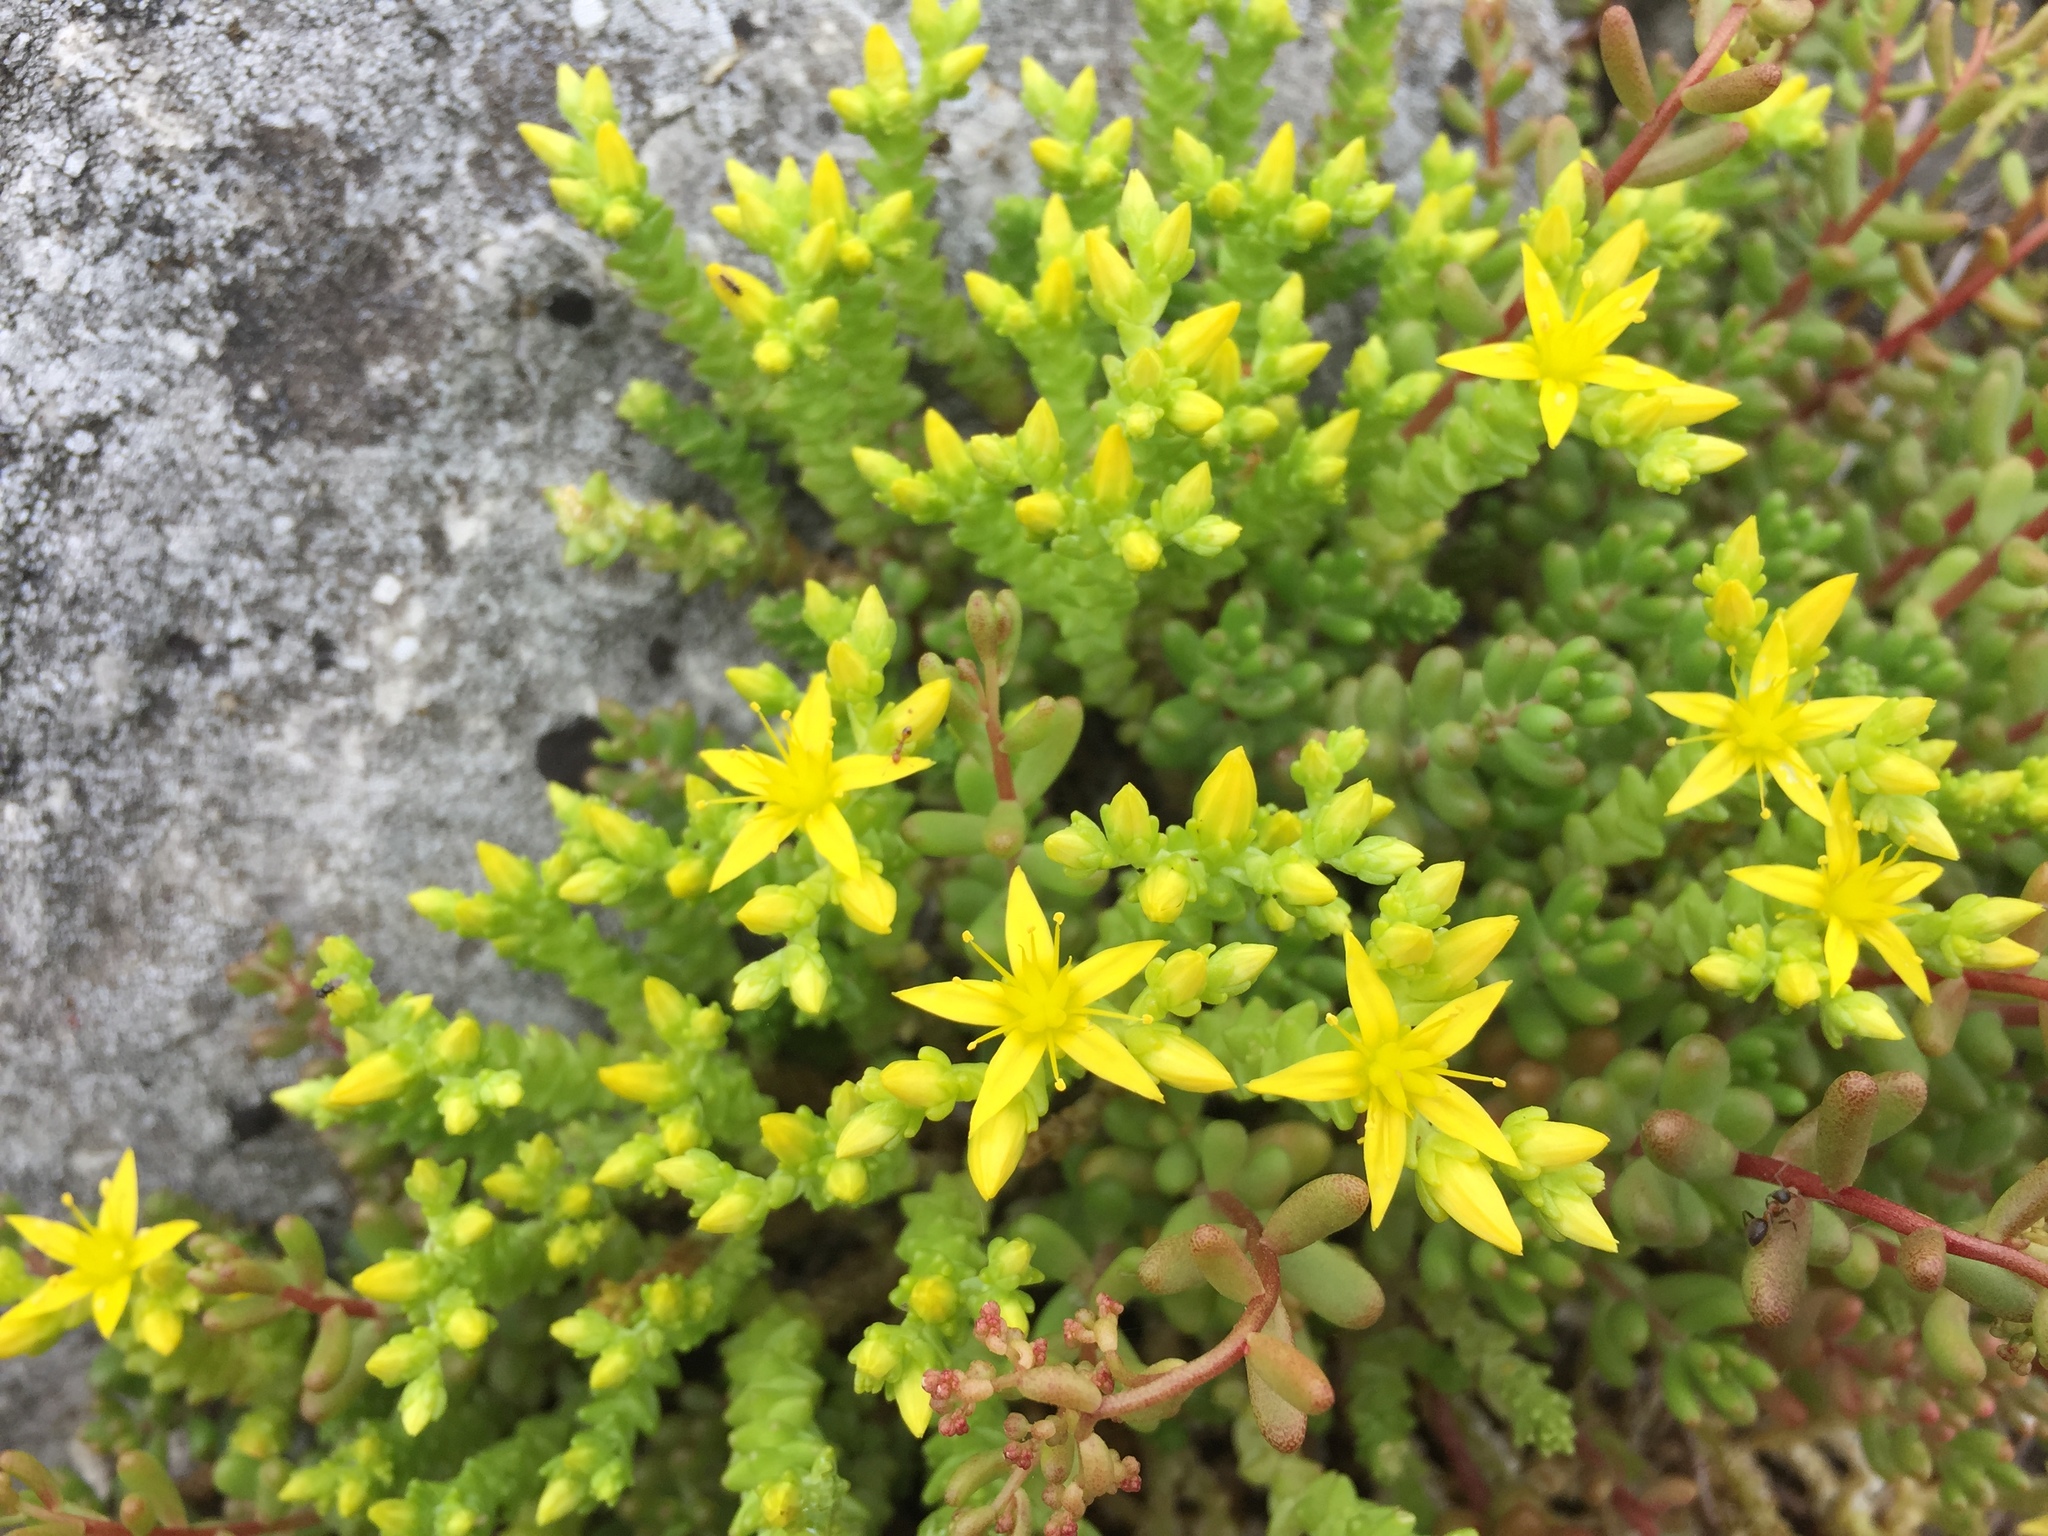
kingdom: Plantae
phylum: Tracheophyta
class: Magnoliopsida
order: Saxifragales
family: Crassulaceae
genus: Sedum
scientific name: Sedum acre
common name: Biting stonecrop
